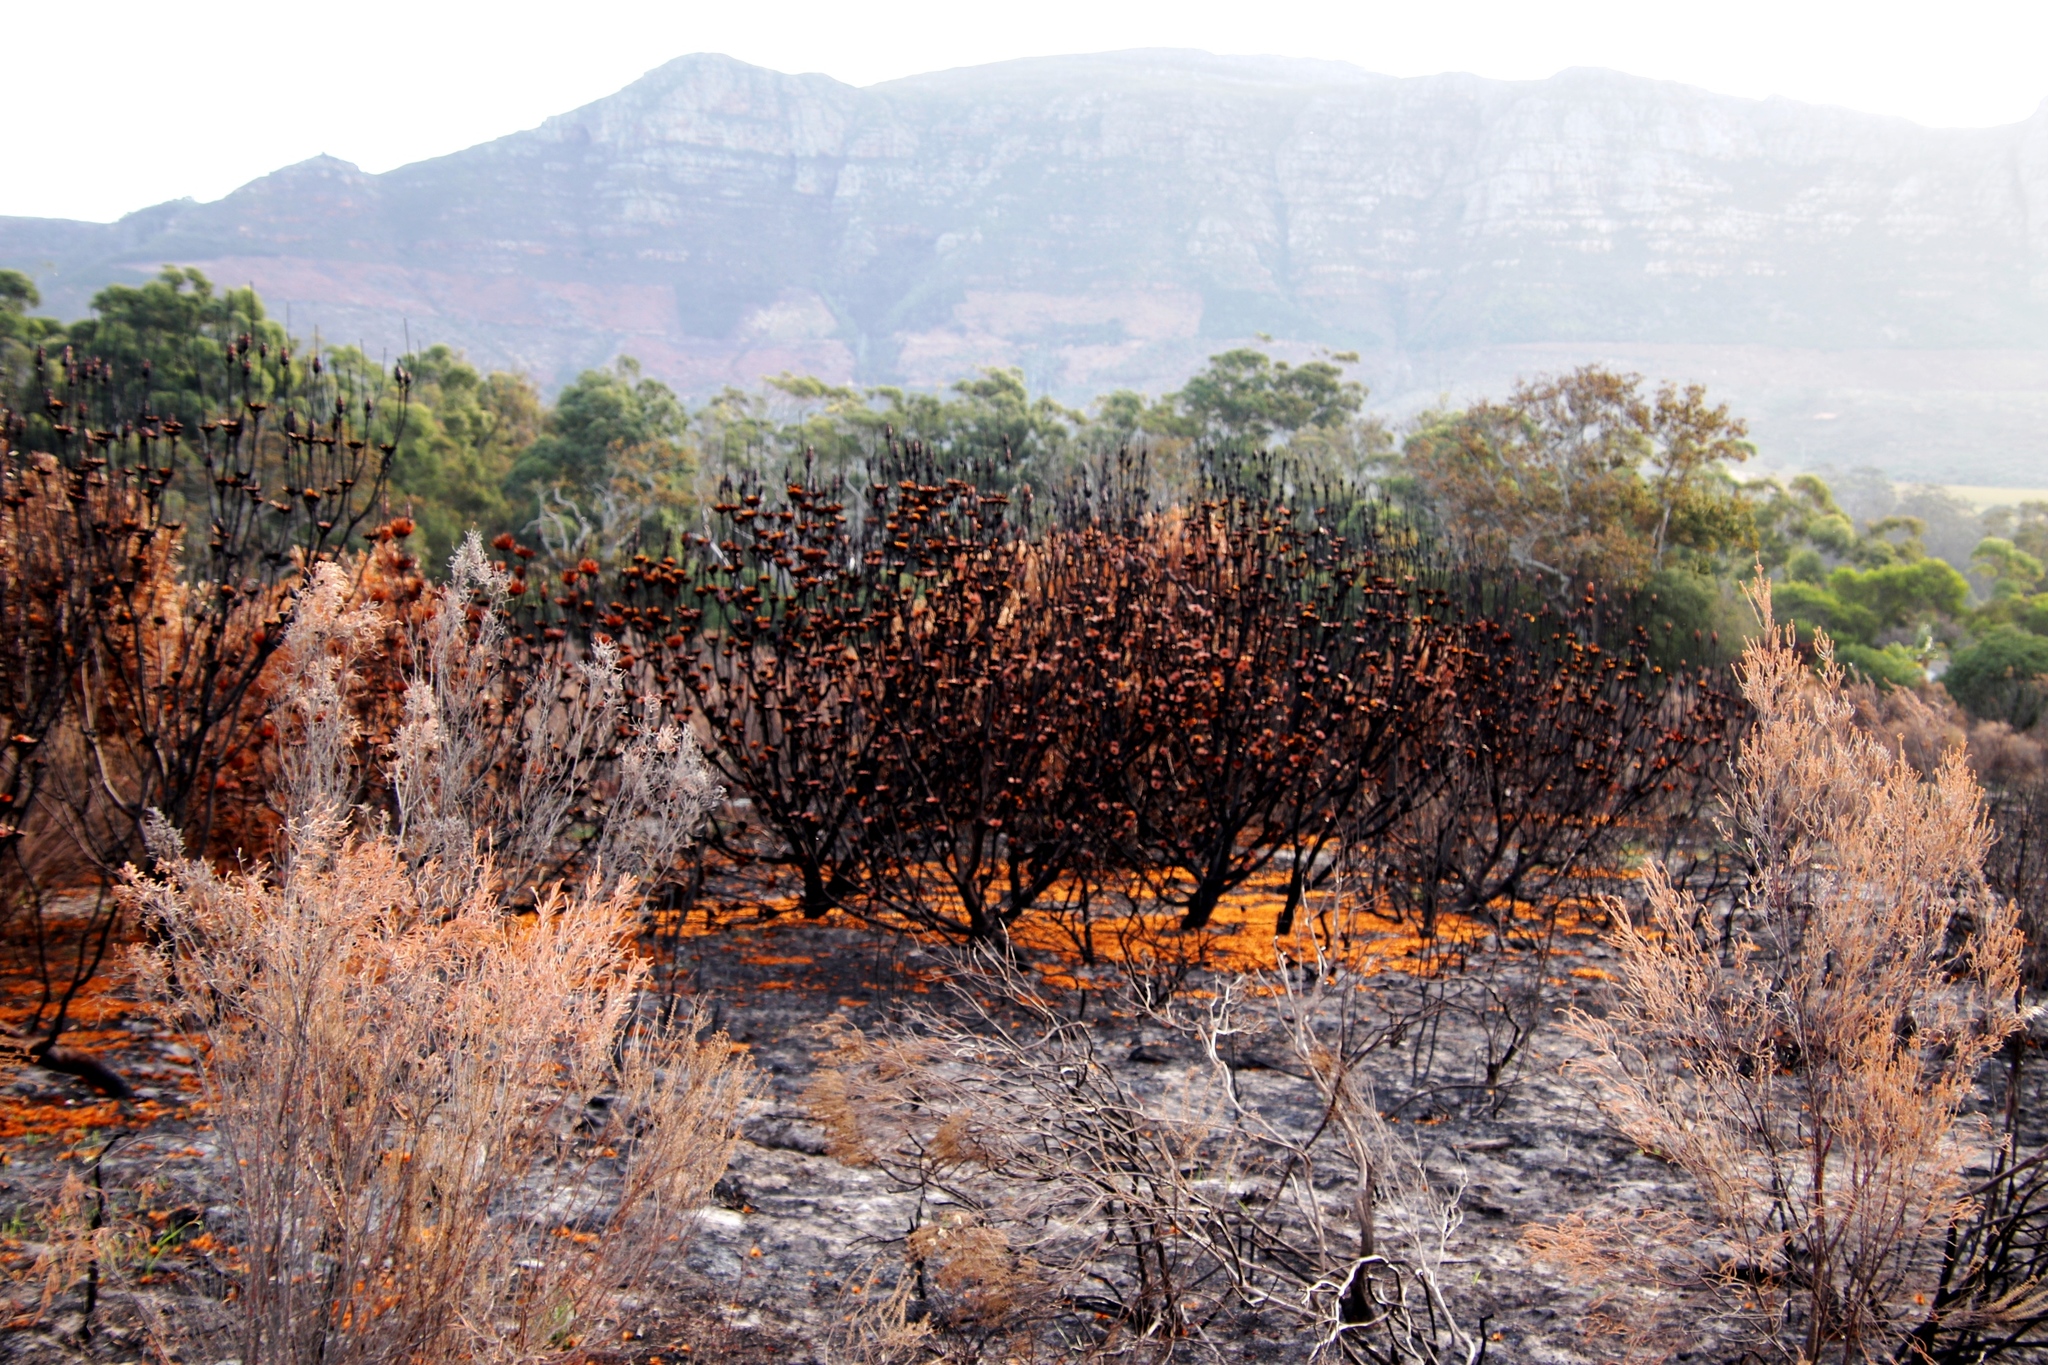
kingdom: Plantae
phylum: Tracheophyta
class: Magnoliopsida
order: Proteales
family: Proteaceae
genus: Protea
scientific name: Protea repens
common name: Sugarbush
